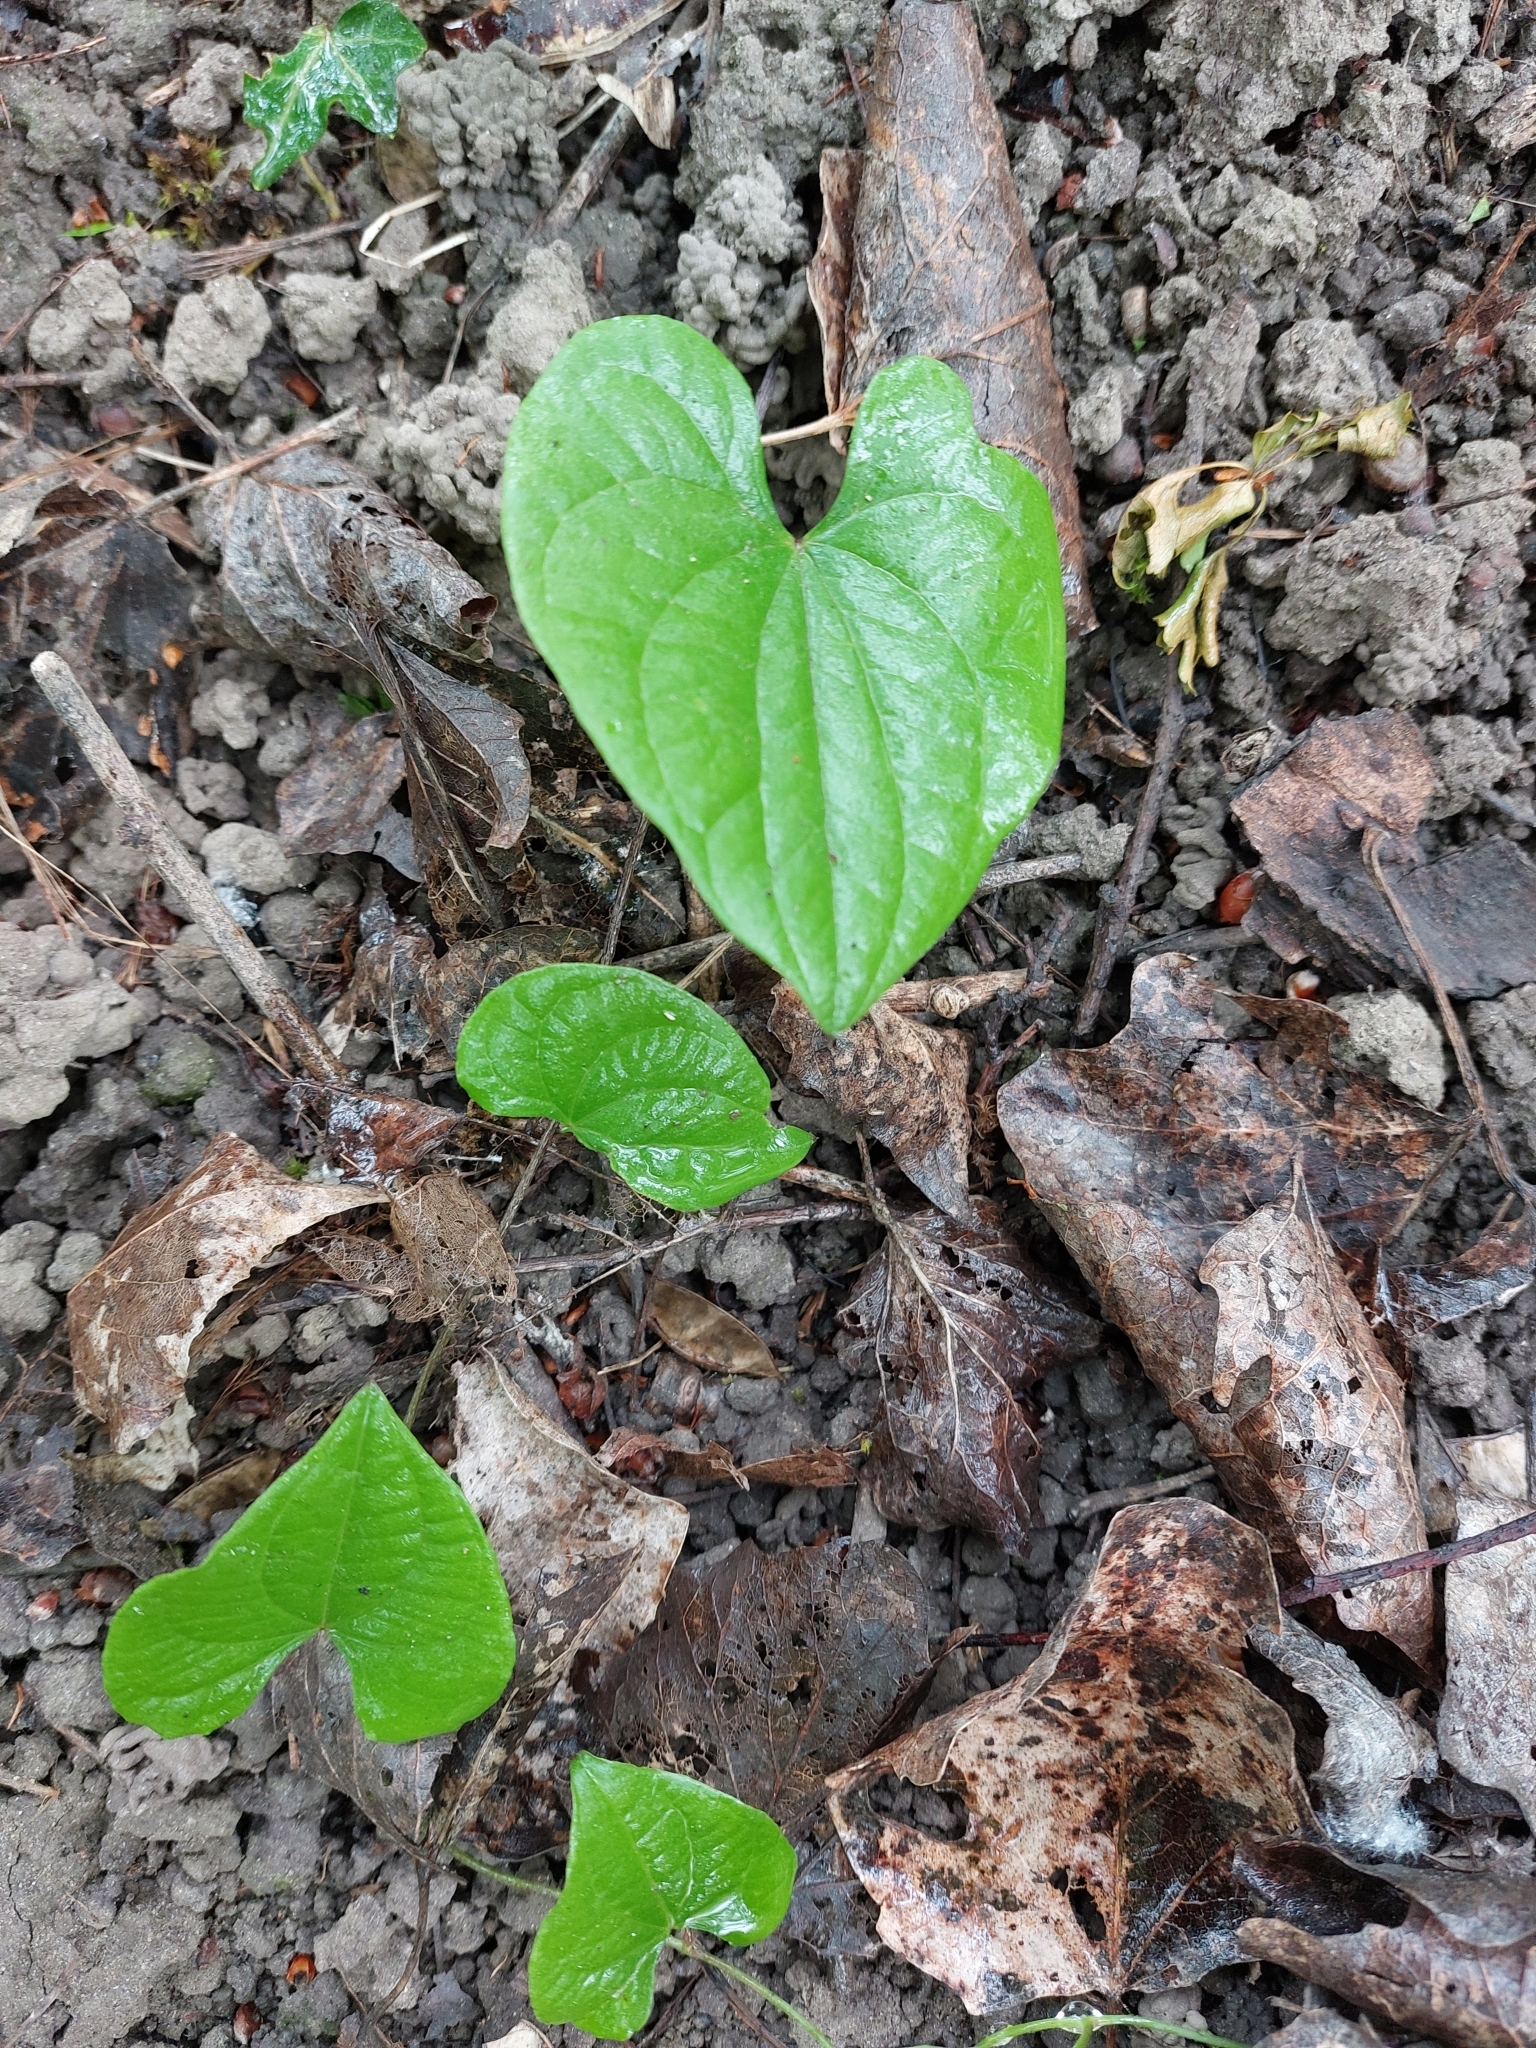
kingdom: Plantae
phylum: Tracheophyta
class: Liliopsida
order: Dioscoreales
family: Dioscoreaceae
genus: Dioscorea
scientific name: Dioscorea communis
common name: Black-bindweed
